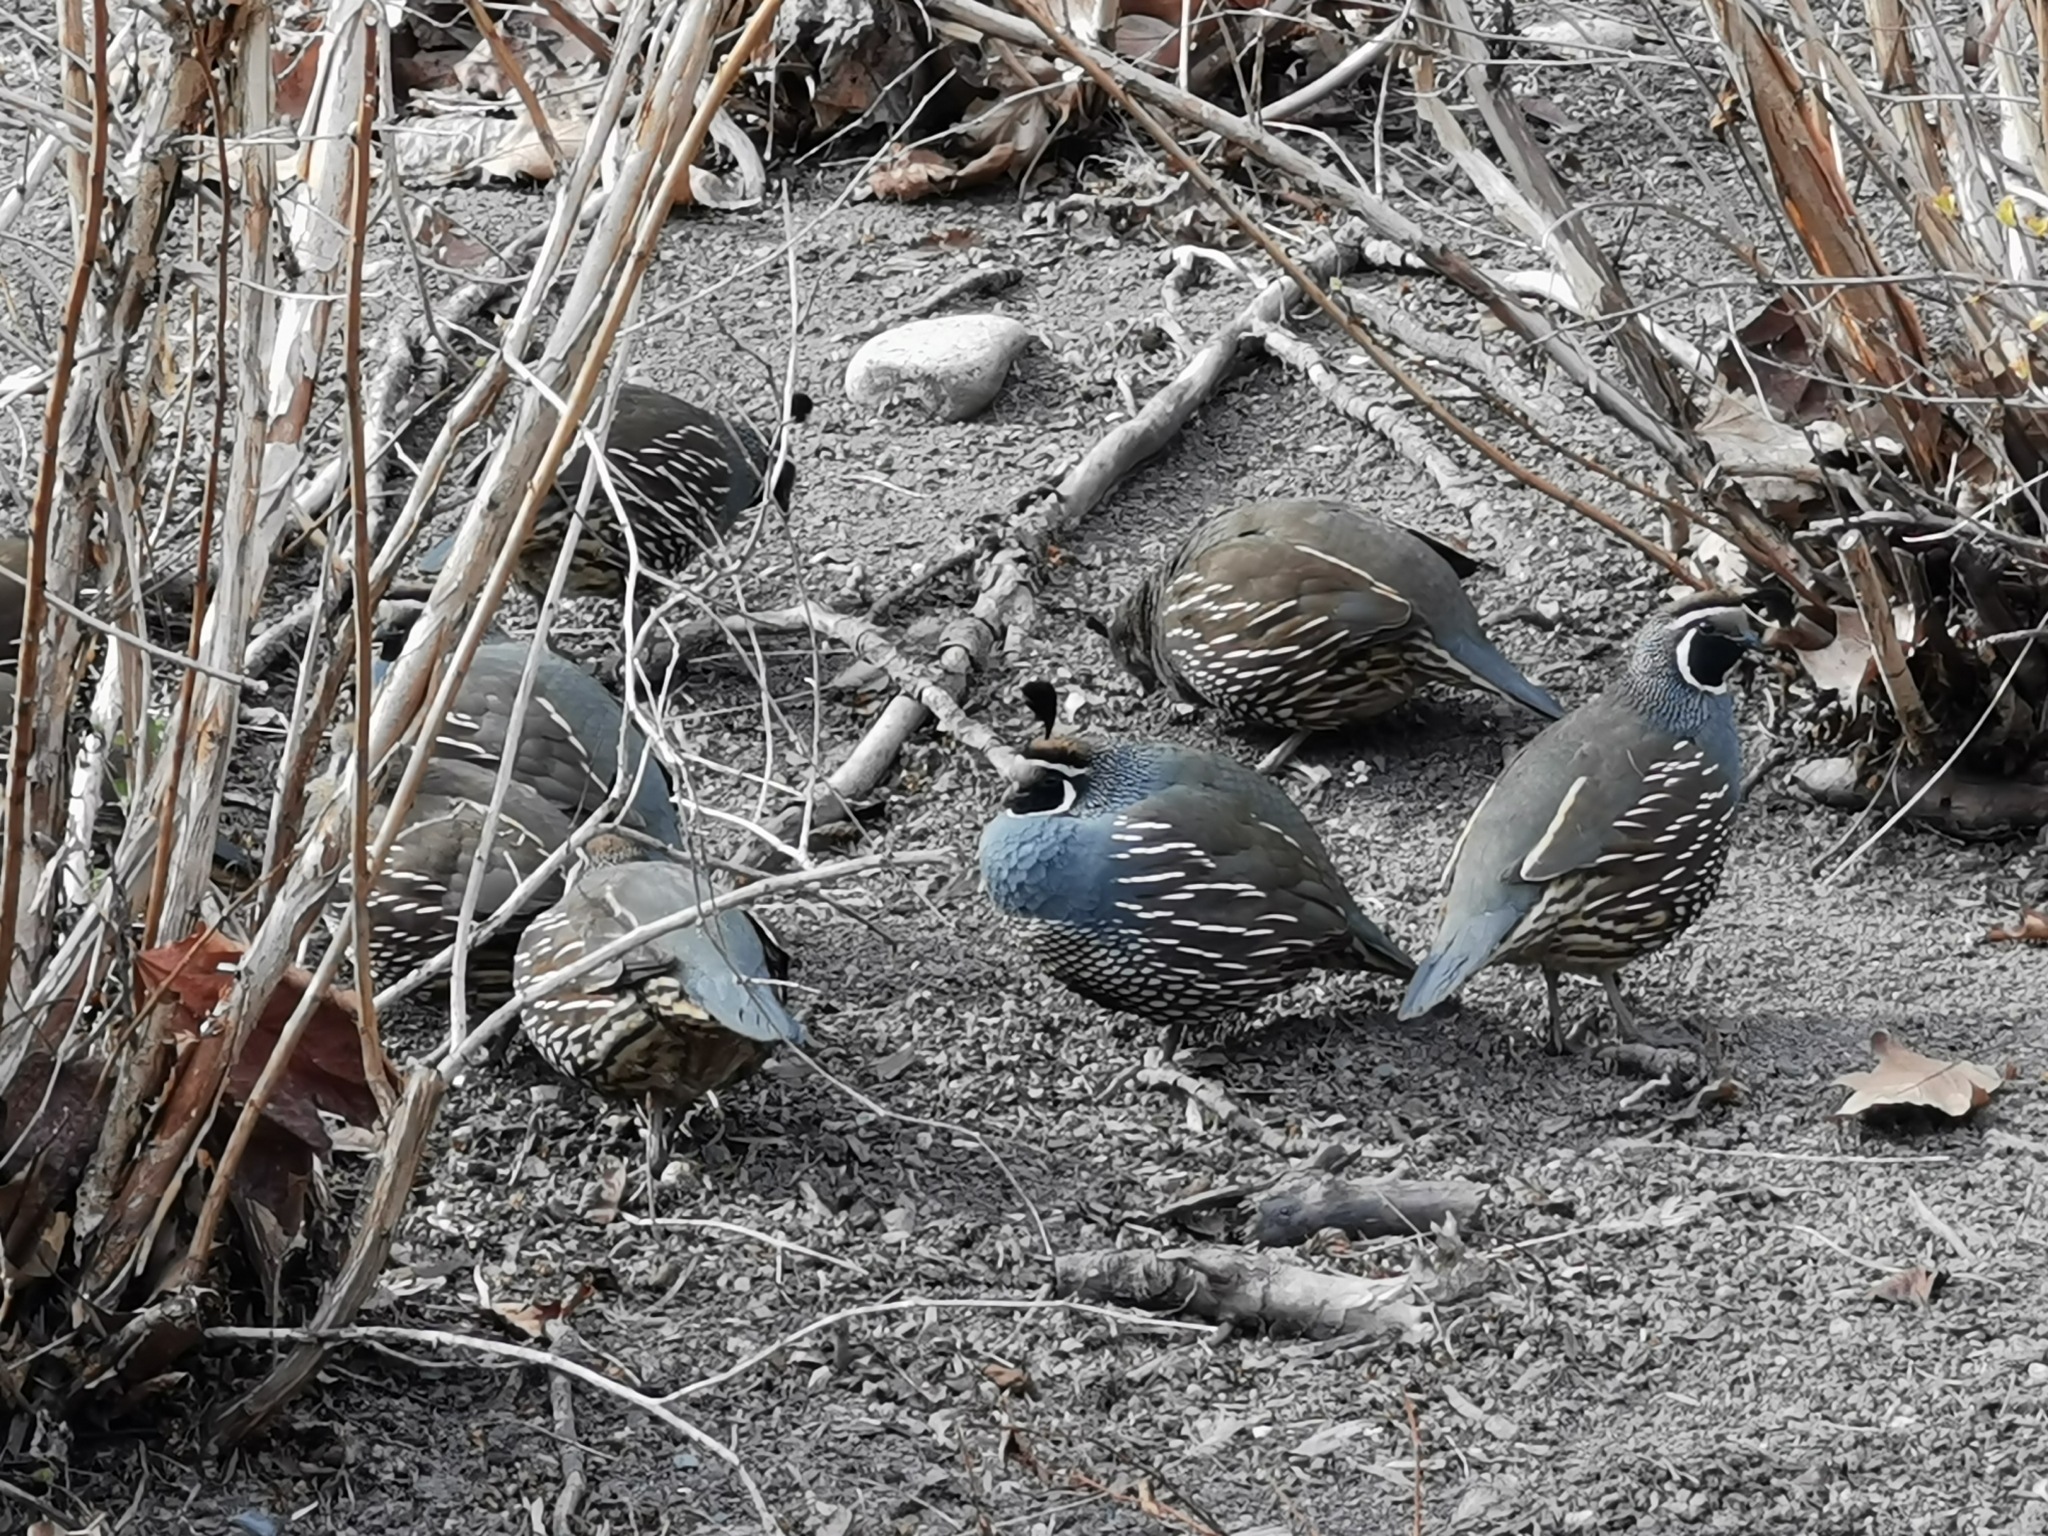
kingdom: Animalia
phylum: Chordata
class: Aves
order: Galliformes
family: Odontophoridae
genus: Callipepla
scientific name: Callipepla californica
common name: California quail
